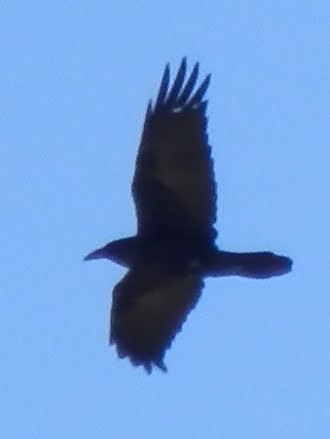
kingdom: Animalia
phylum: Chordata
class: Aves
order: Passeriformes
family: Corvidae
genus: Corvus
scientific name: Corvus corax
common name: Common raven
